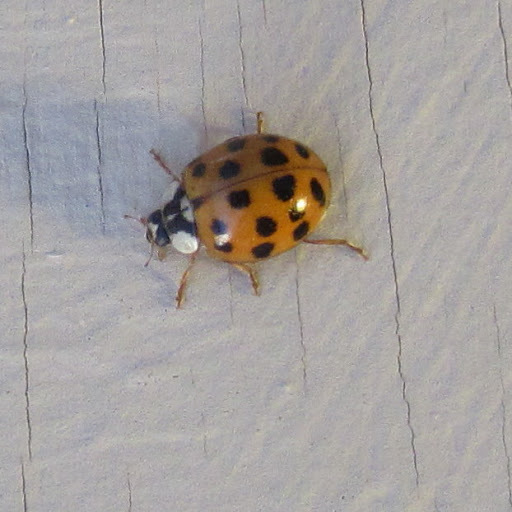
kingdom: Animalia
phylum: Arthropoda
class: Insecta
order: Coleoptera
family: Coccinellidae
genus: Harmonia
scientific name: Harmonia axyridis
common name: Harlequin ladybird
